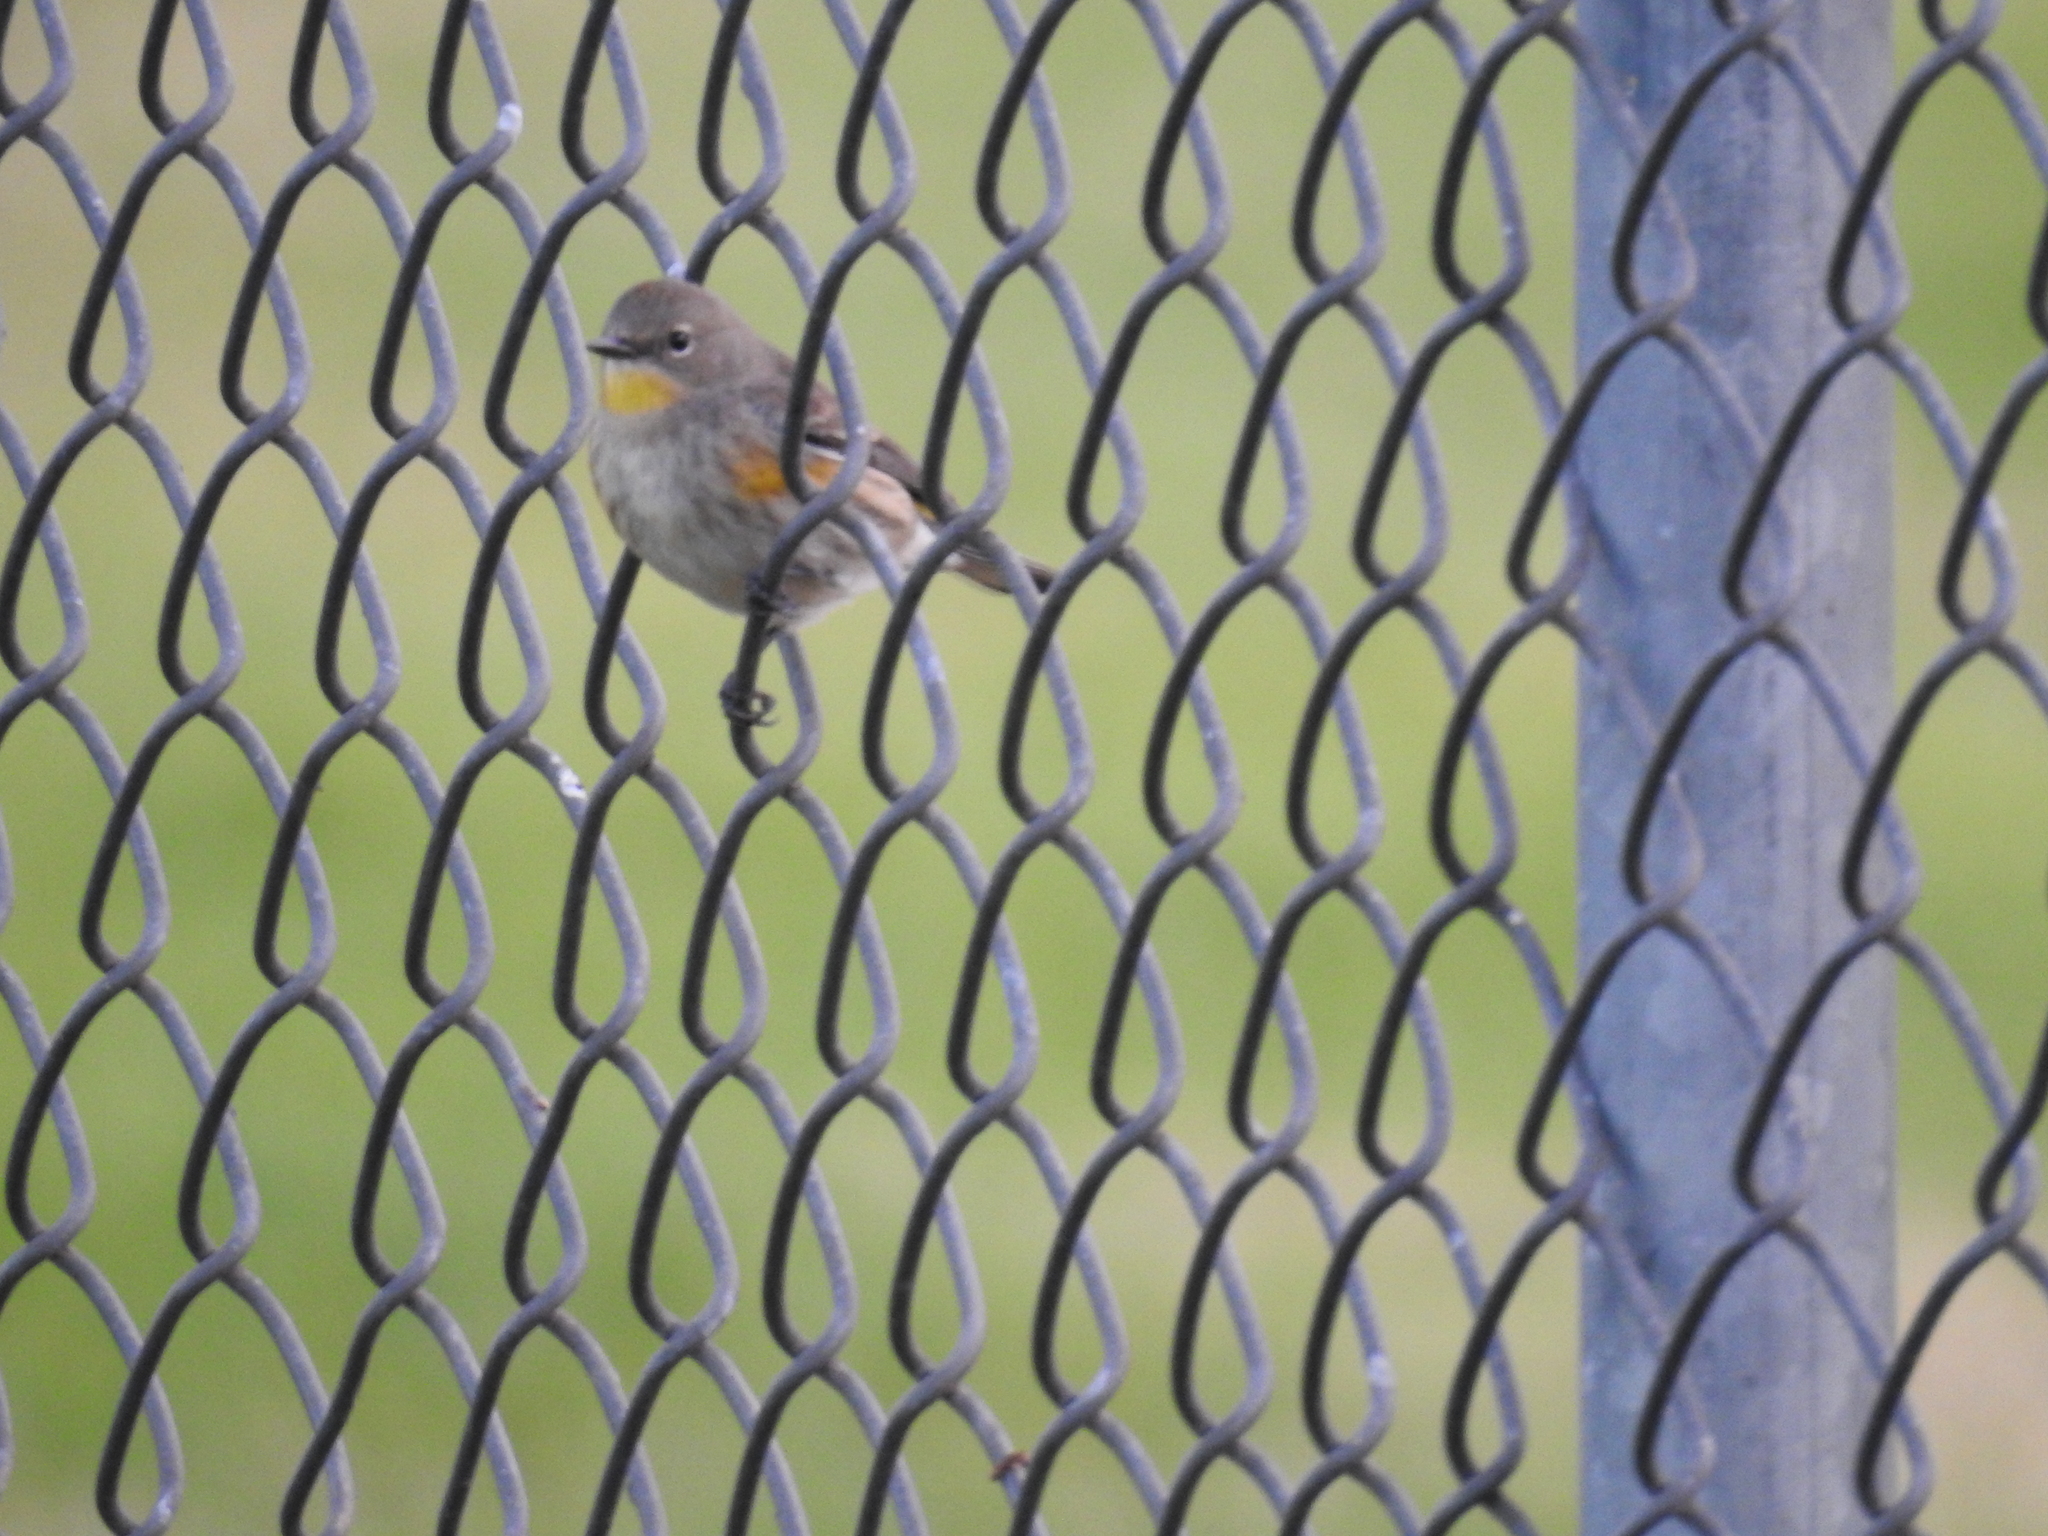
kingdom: Animalia
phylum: Chordata
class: Aves
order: Passeriformes
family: Parulidae
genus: Setophaga
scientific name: Setophaga coronata
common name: Myrtle warbler
